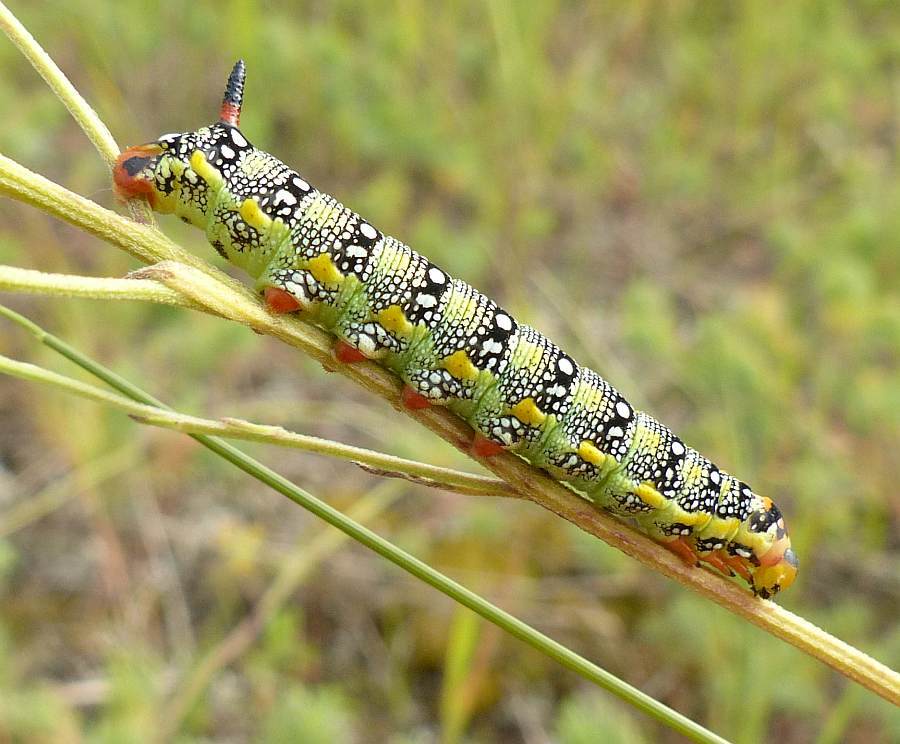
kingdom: Animalia
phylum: Arthropoda
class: Insecta
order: Lepidoptera
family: Sphingidae
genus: Hyles
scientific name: Hyles euphorbiae
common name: Spurge hawk-moth
